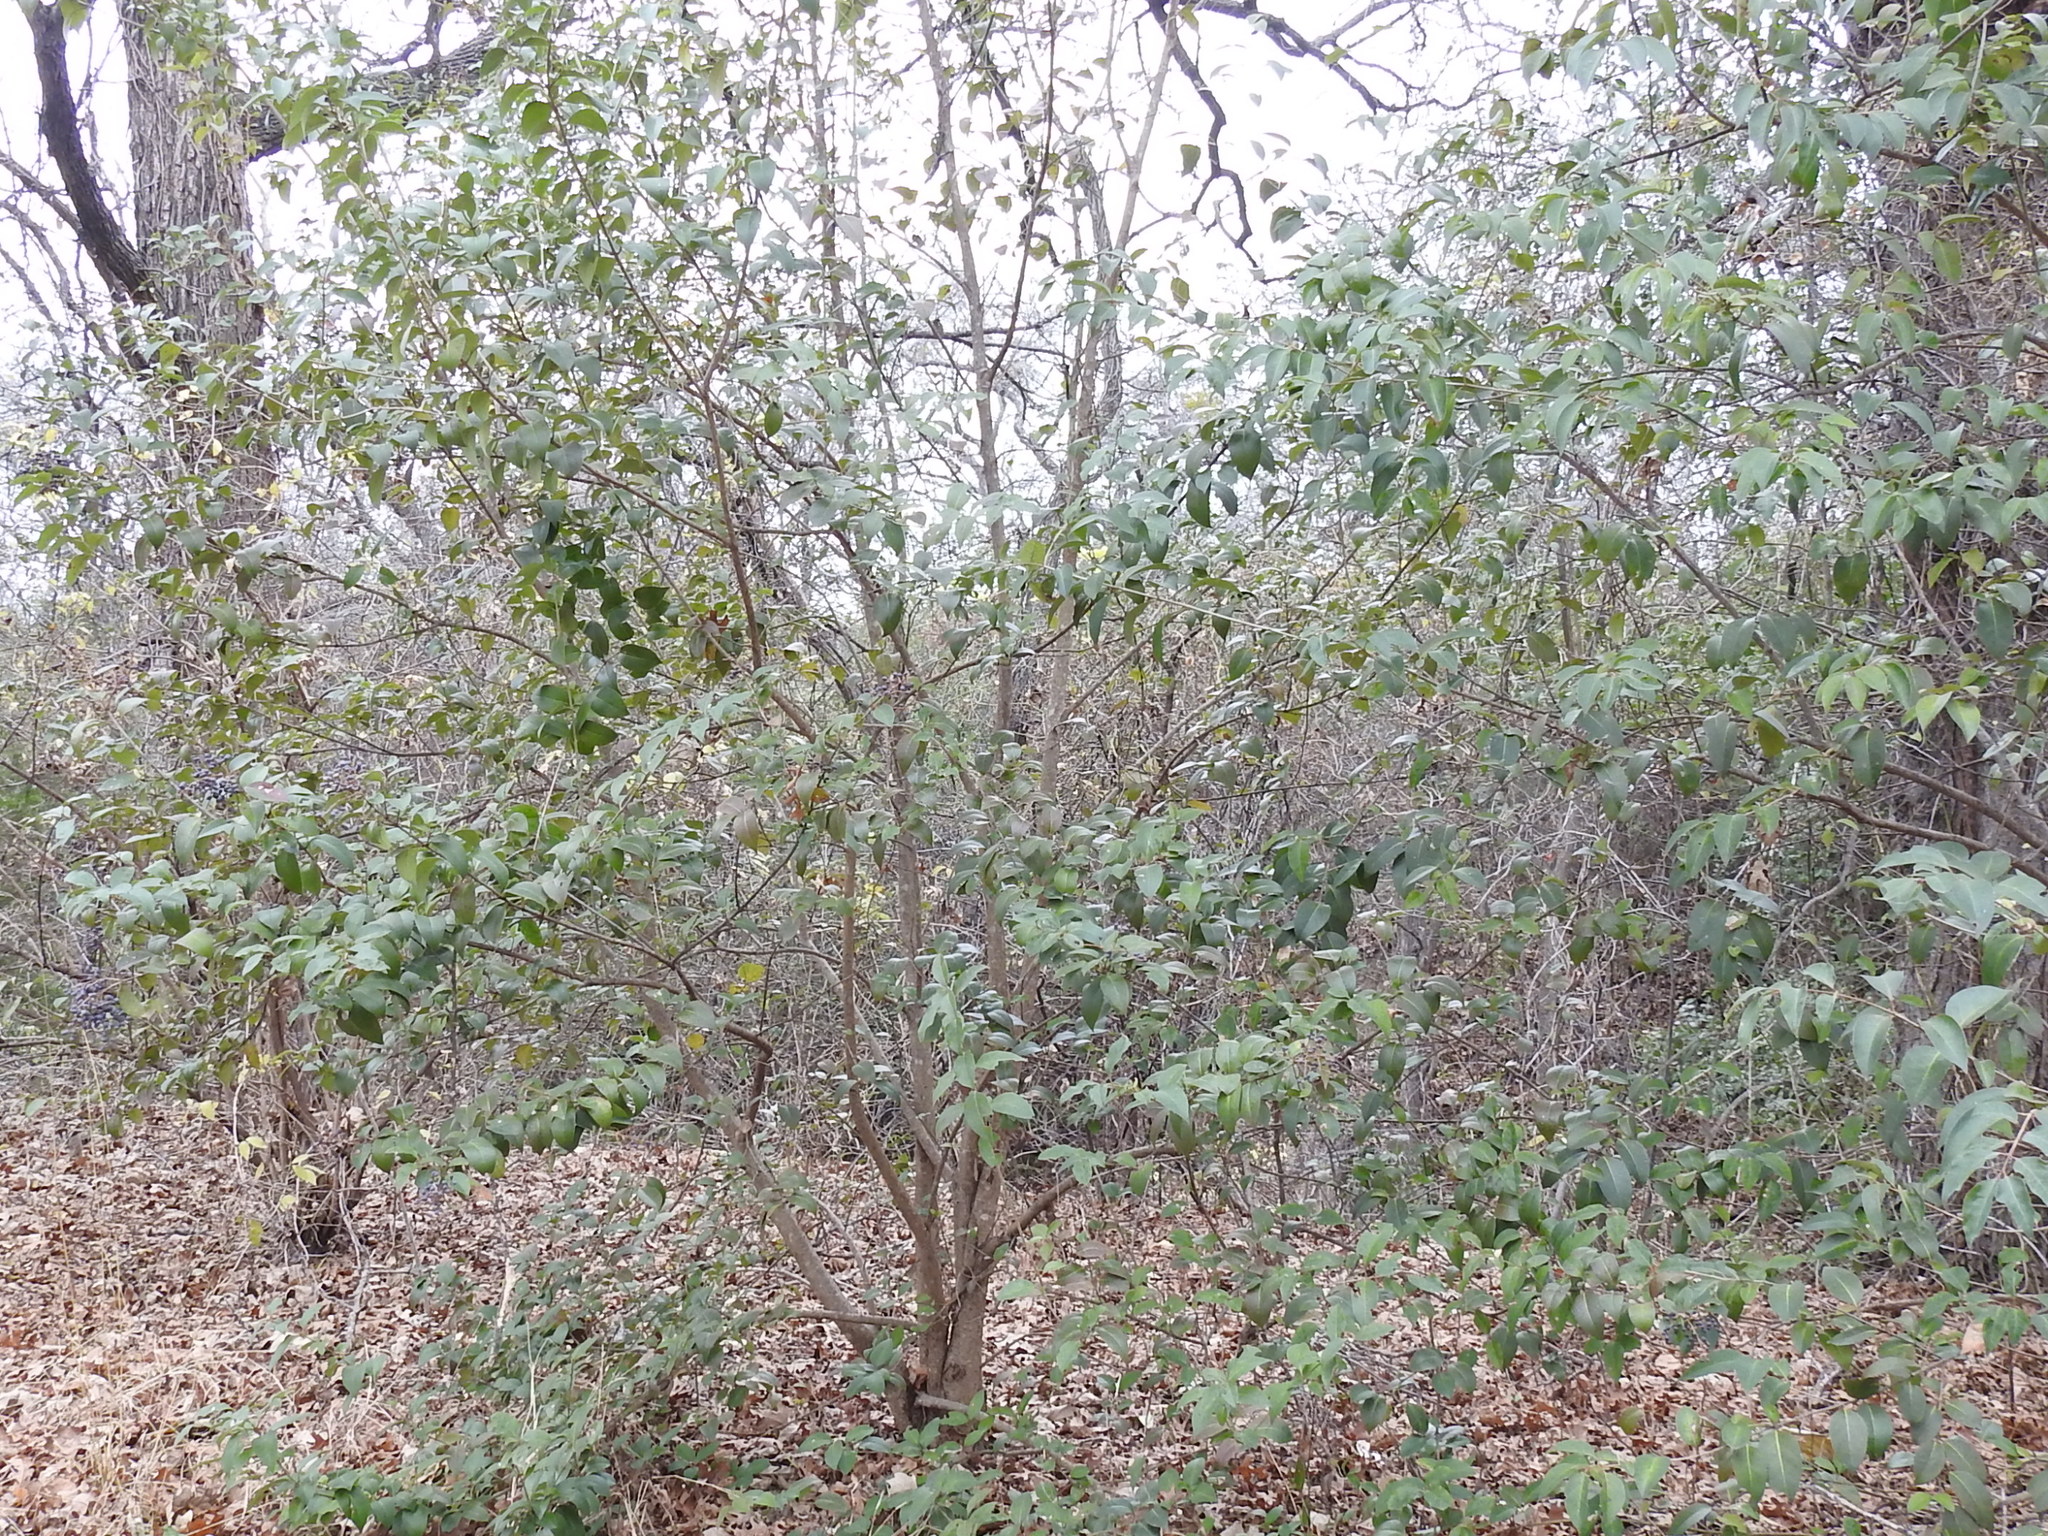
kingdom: Plantae
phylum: Tracheophyta
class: Magnoliopsida
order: Lamiales
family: Oleaceae
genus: Ligustrum
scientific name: Ligustrum lucidum
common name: Glossy privet
